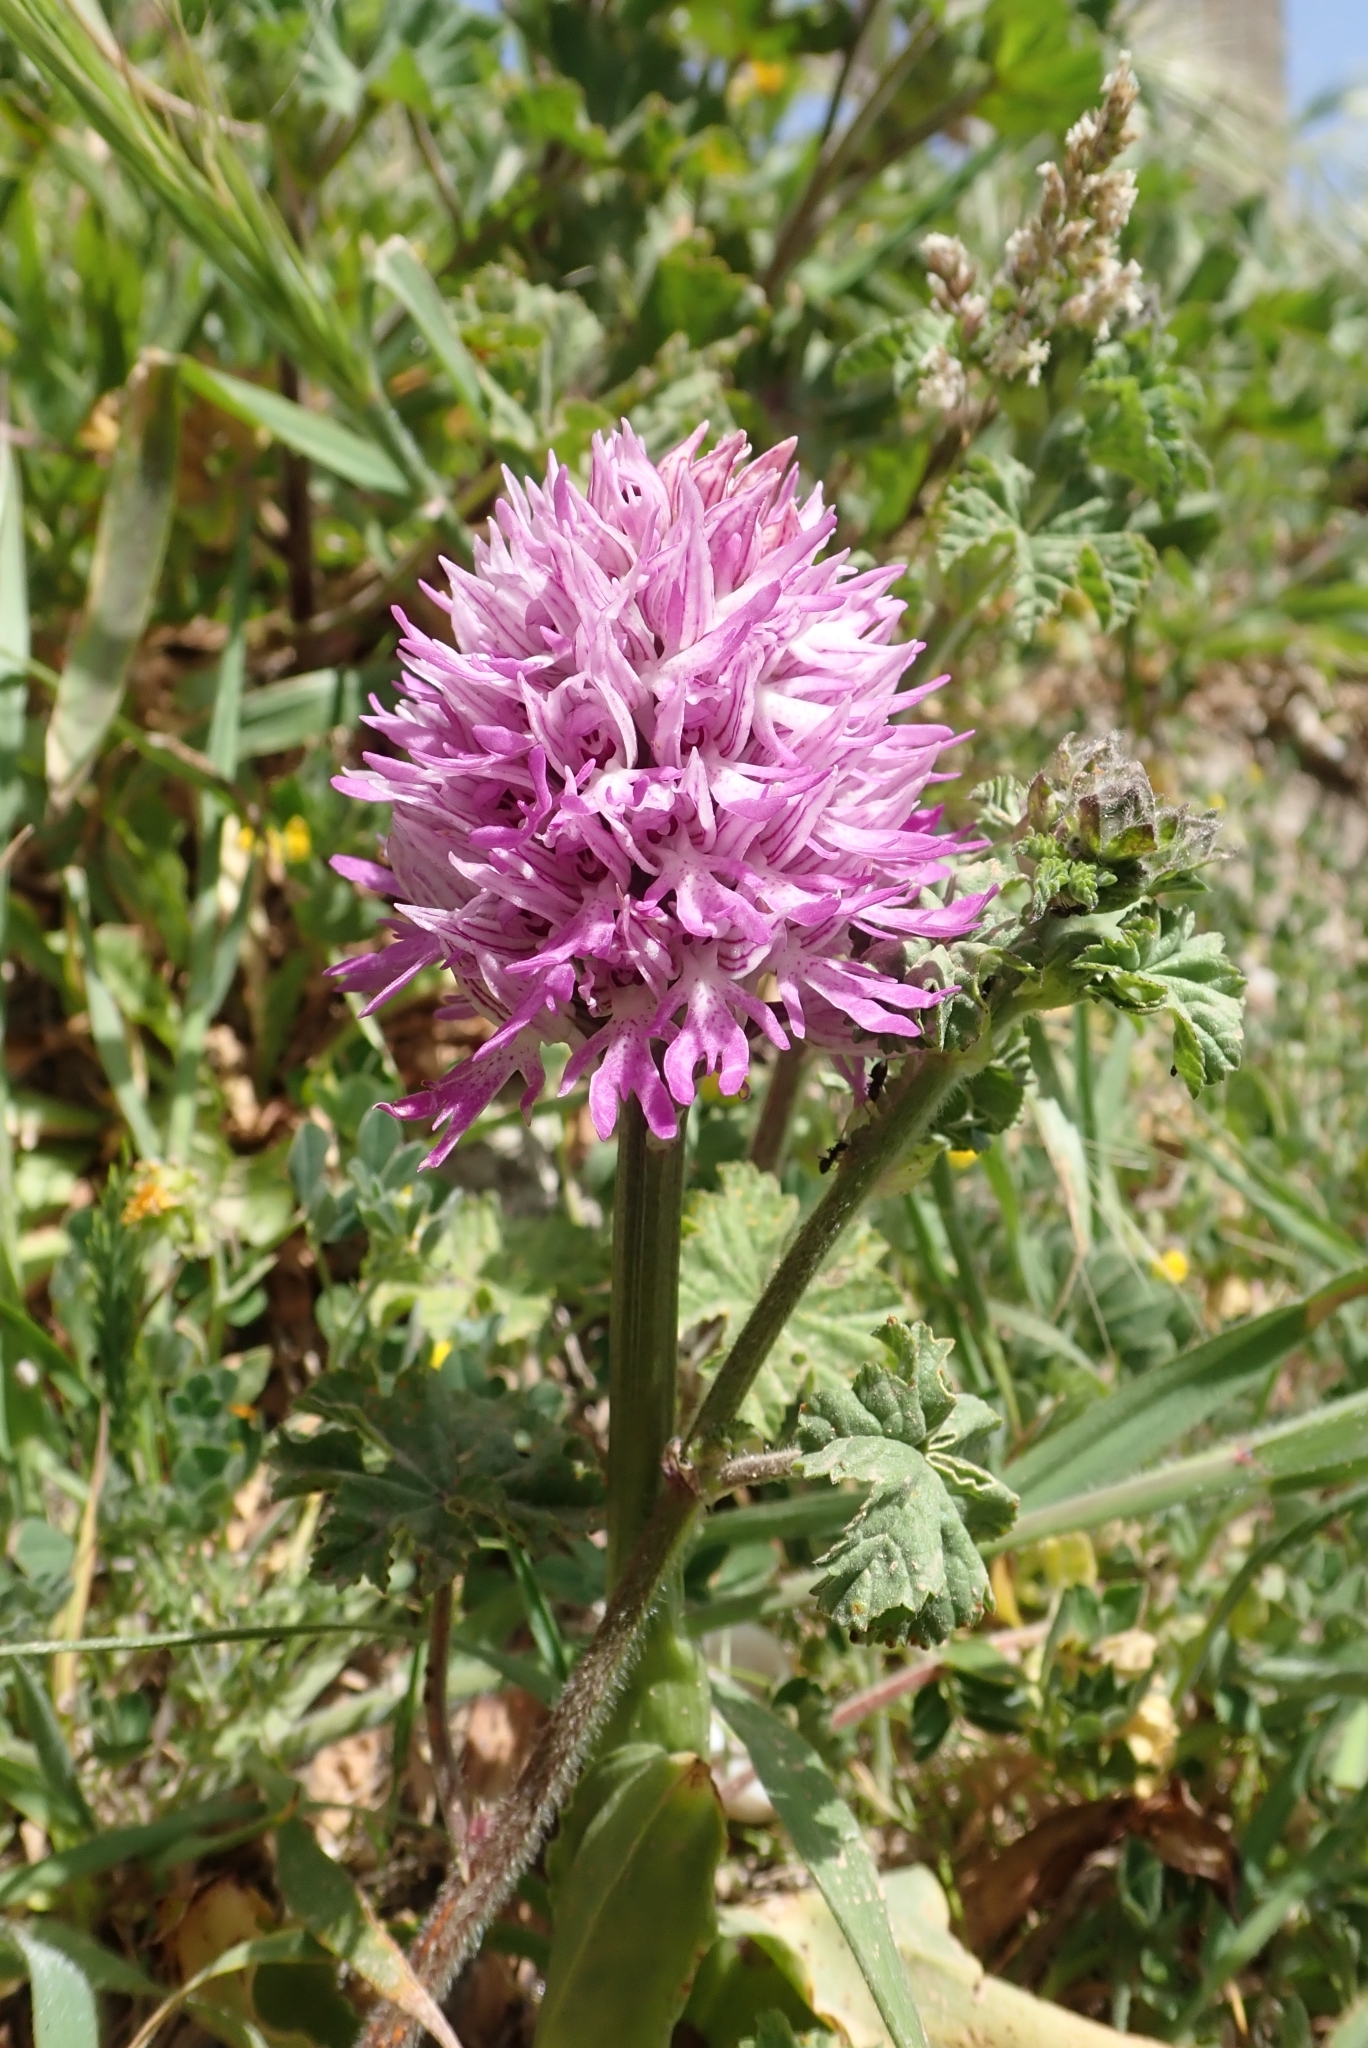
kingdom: Plantae
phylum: Tracheophyta
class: Liliopsida
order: Asparagales
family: Orchidaceae
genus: Orchis
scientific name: Orchis italica
